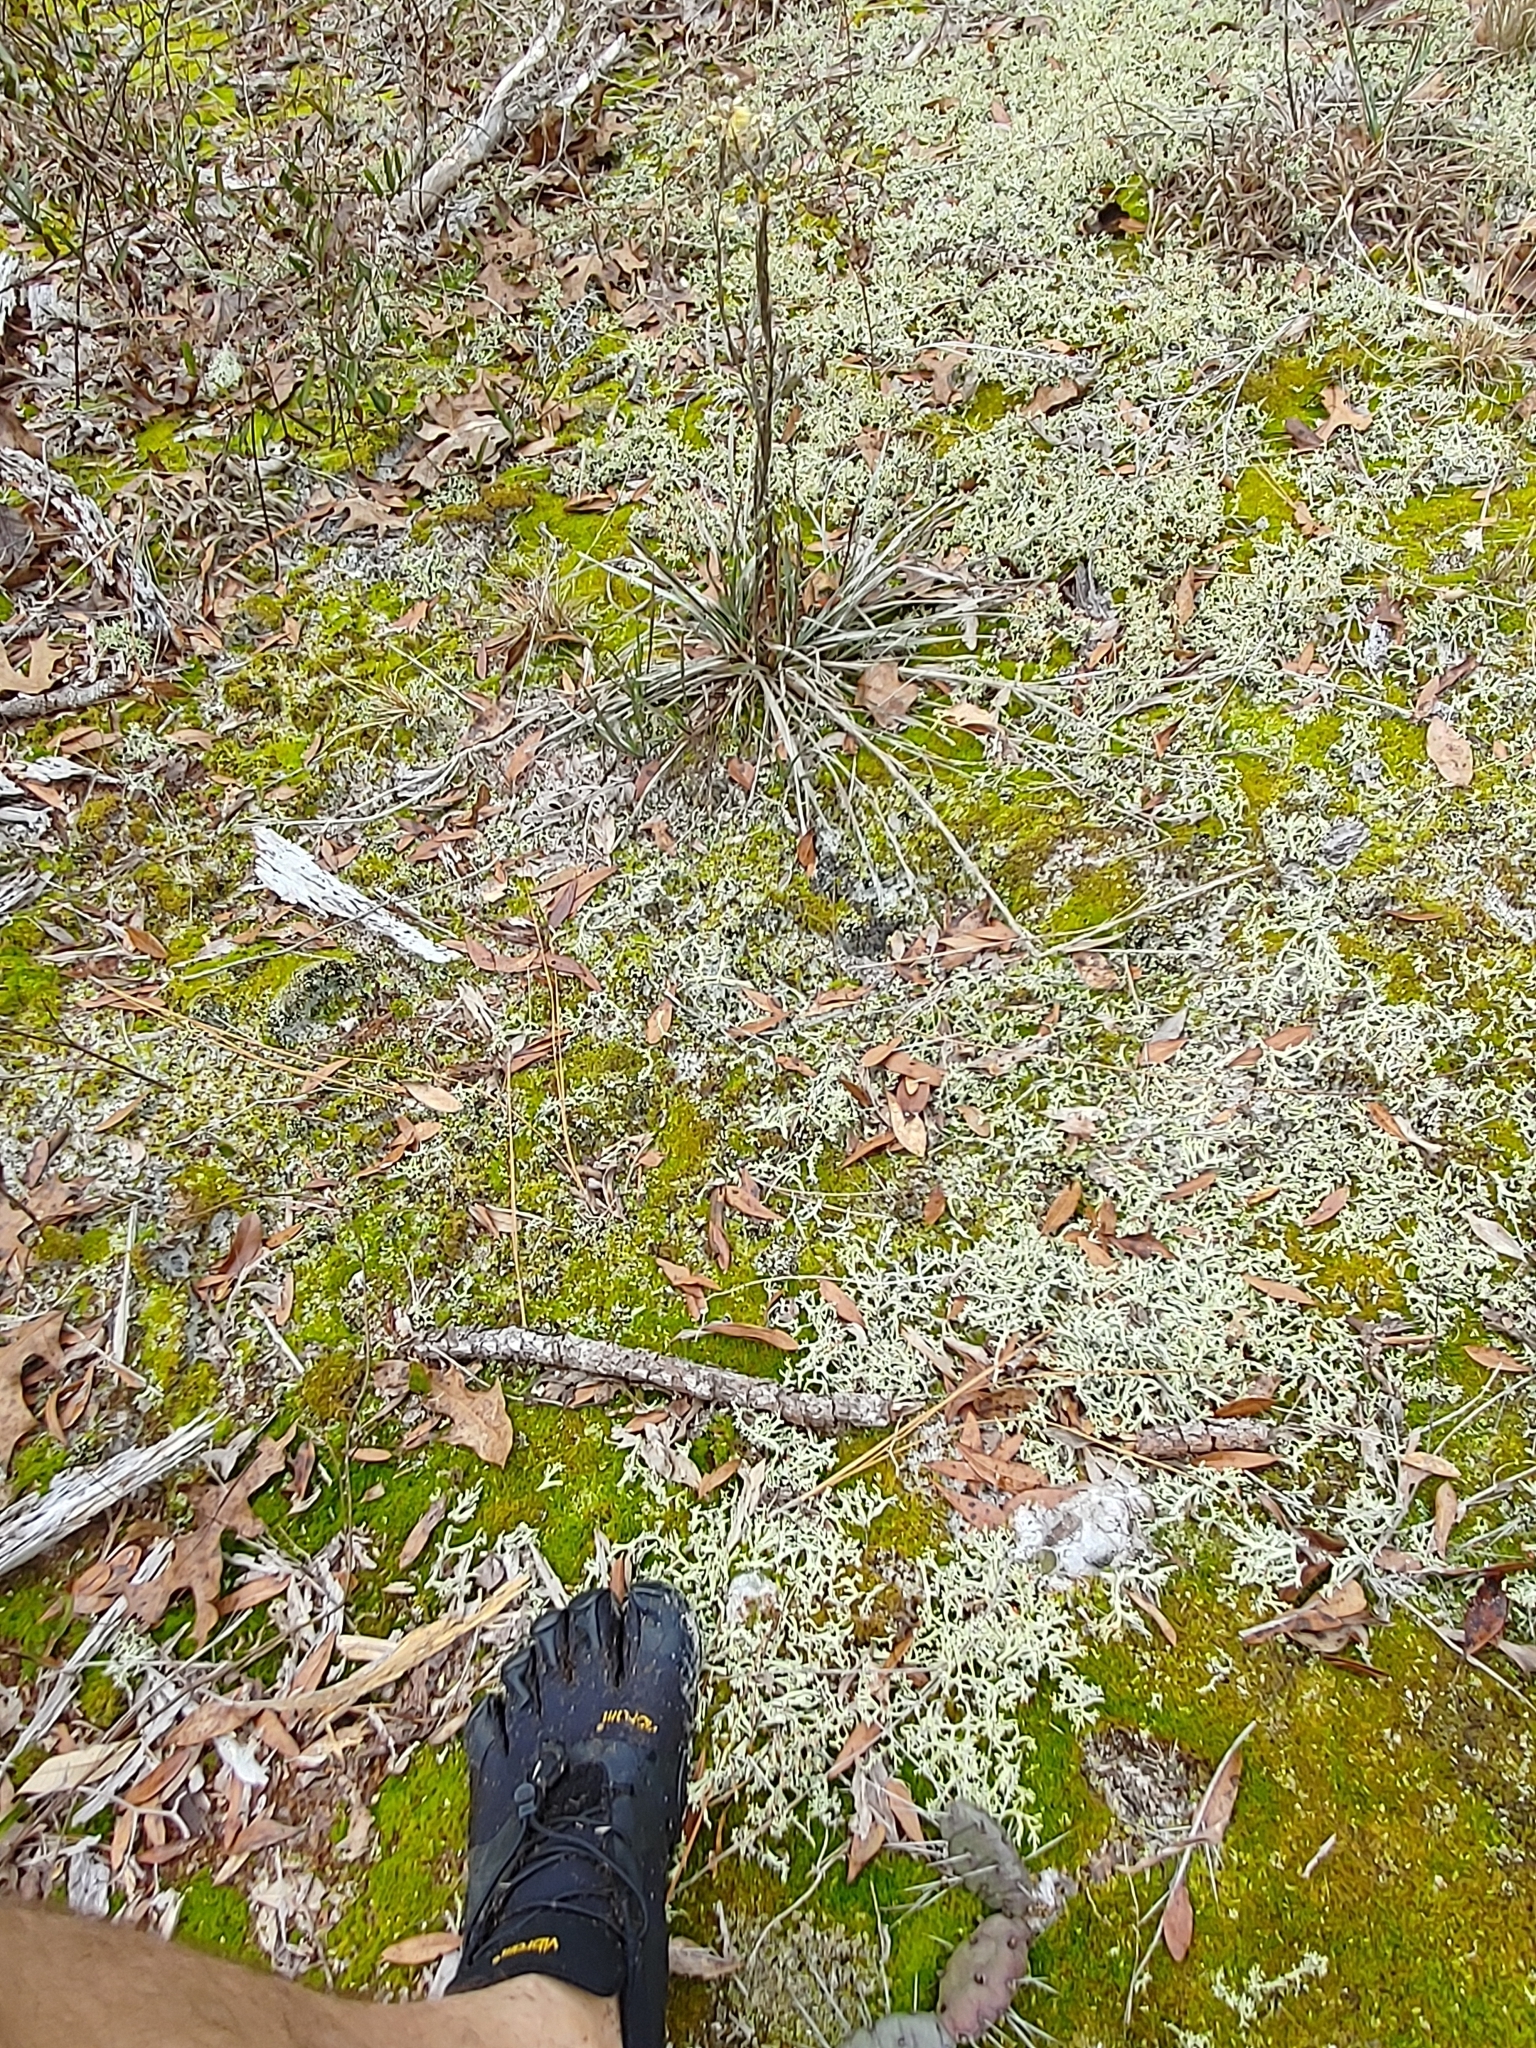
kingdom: Fungi
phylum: Ascomycota
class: Lecanoromycetes
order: Lecanorales
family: Cladoniaceae
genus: Cladonia
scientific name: Cladonia leporina
